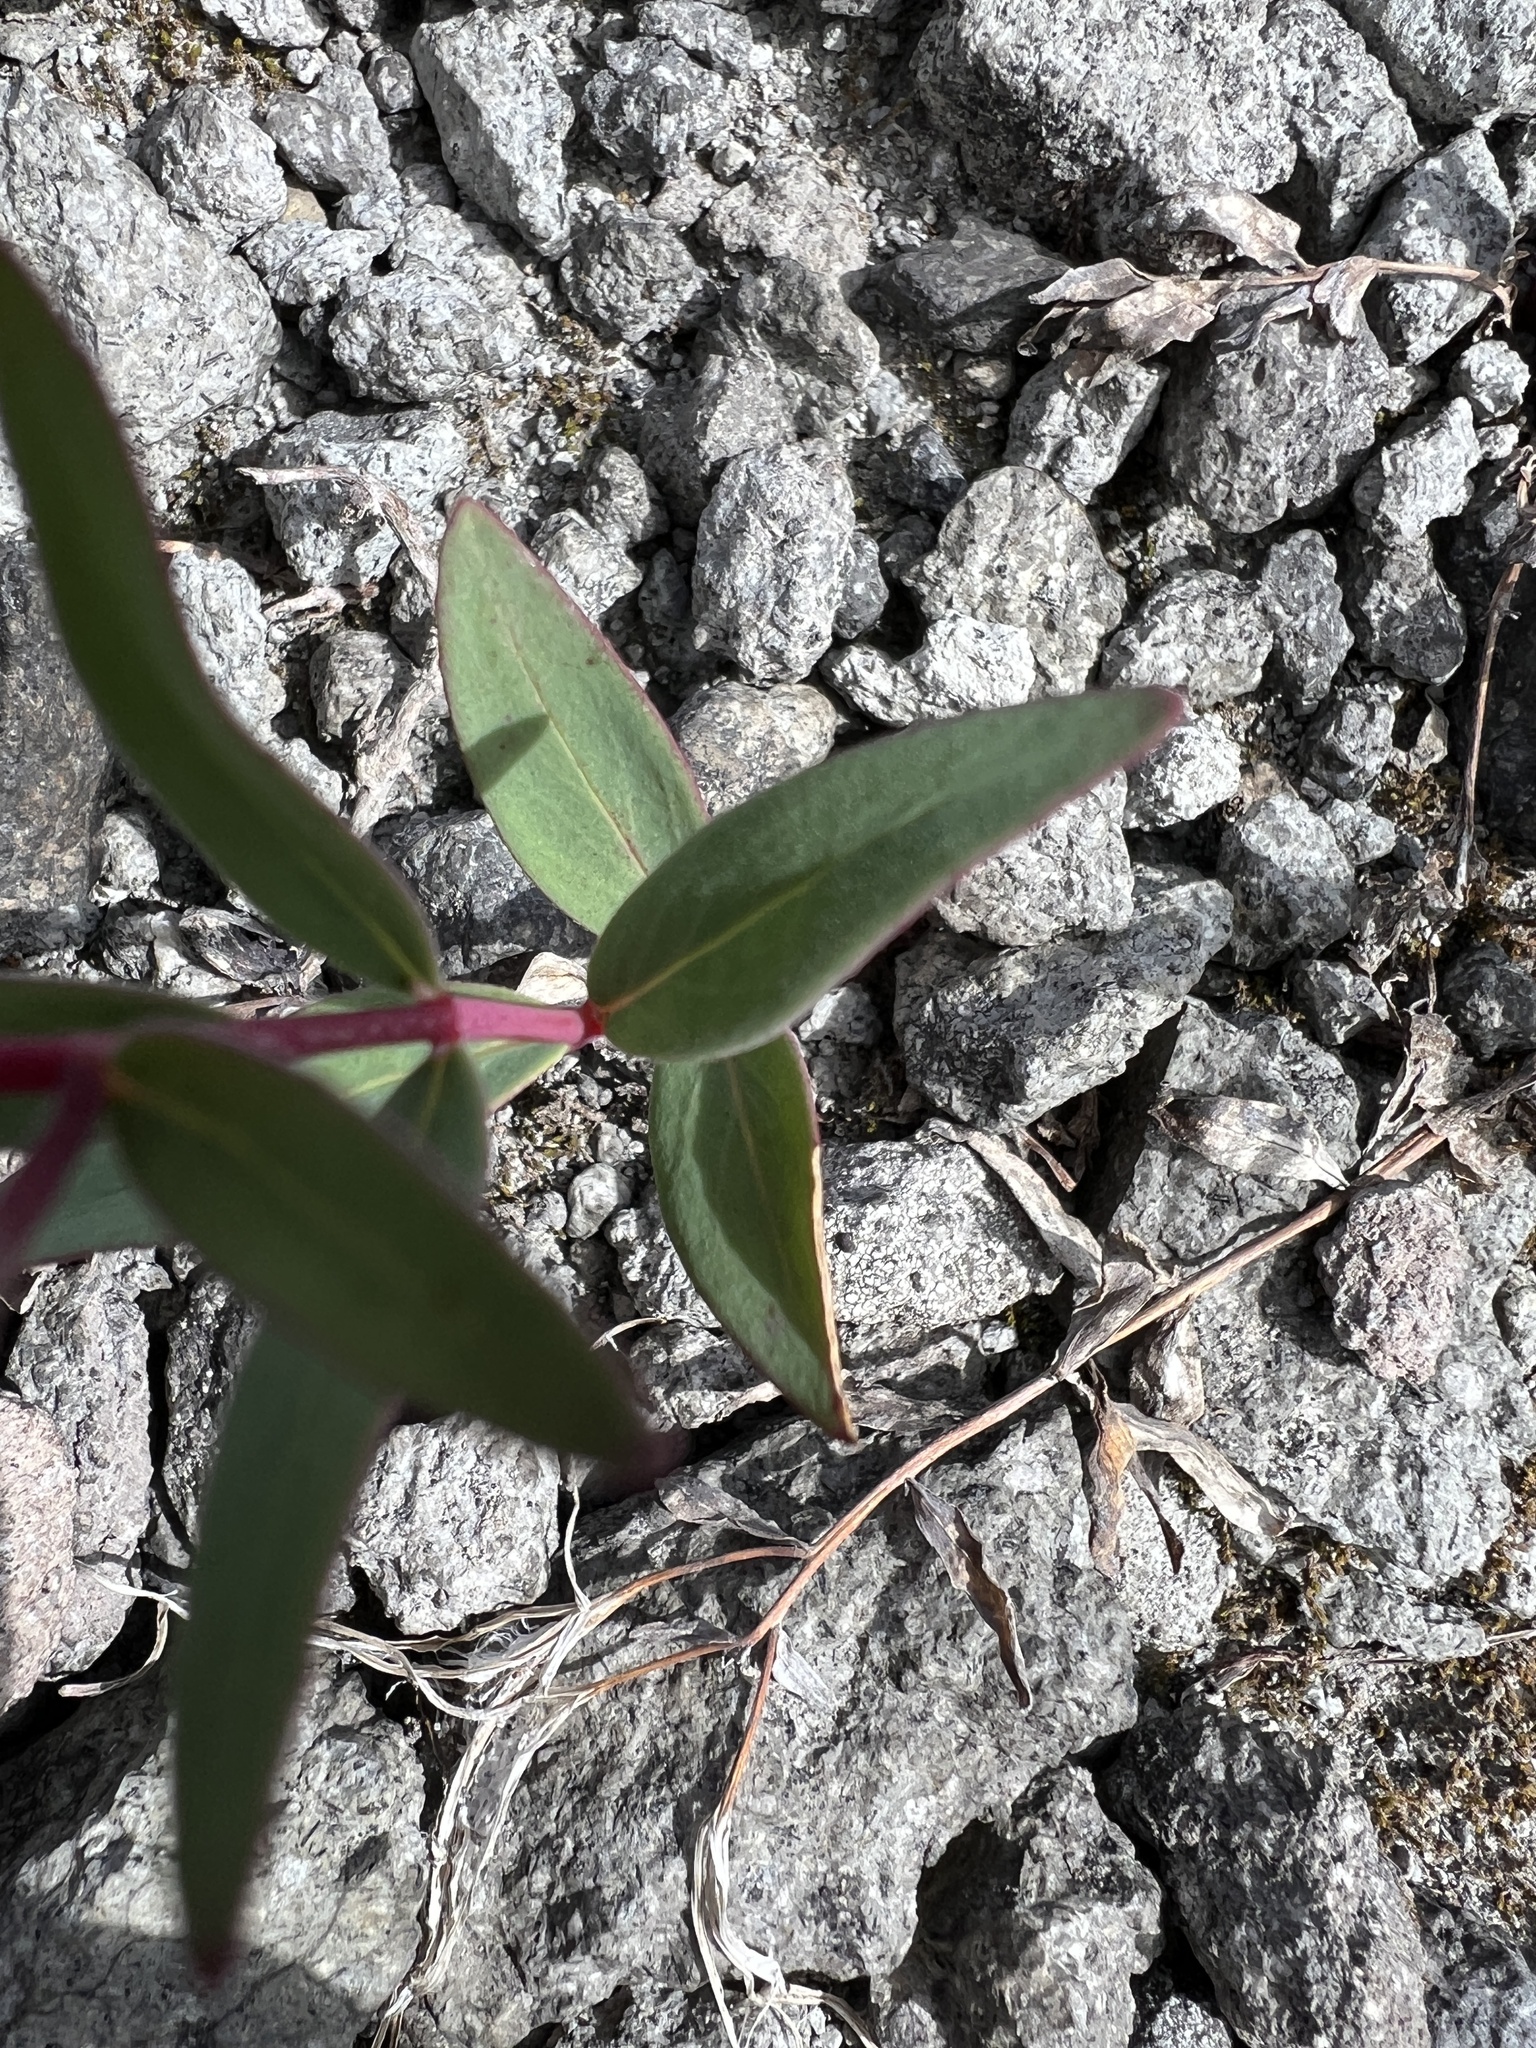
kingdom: Plantae
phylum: Tracheophyta
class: Magnoliopsida
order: Myrtales
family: Onagraceae
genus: Chamaenerion
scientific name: Chamaenerion latifolium
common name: Dwarf fireweed
